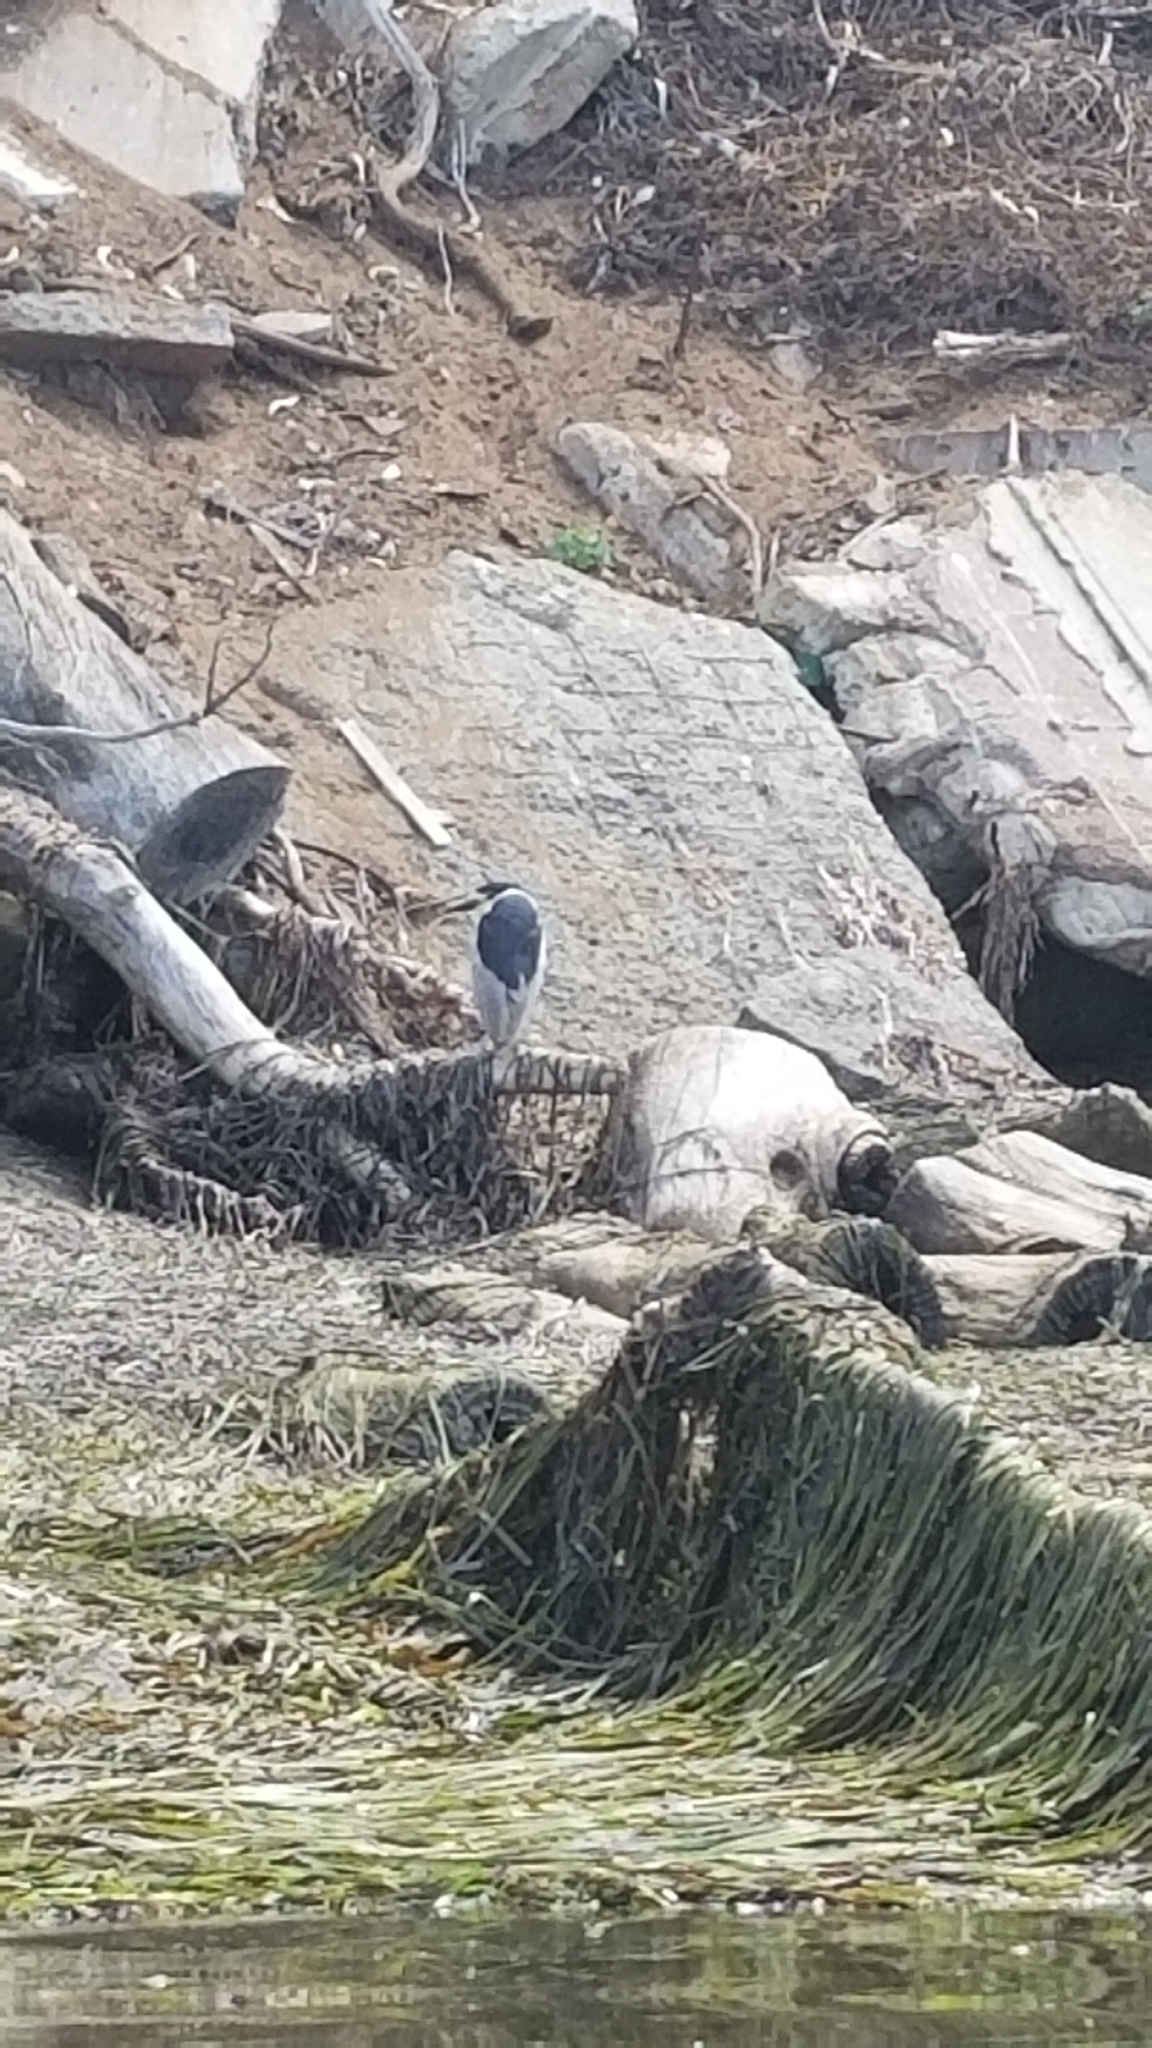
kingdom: Animalia
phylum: Chordata
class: Aves
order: Pelecaniformes
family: Ardeidae
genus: Nycticorax
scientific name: Nycticorax nycticorax
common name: Black-crowned night heron
